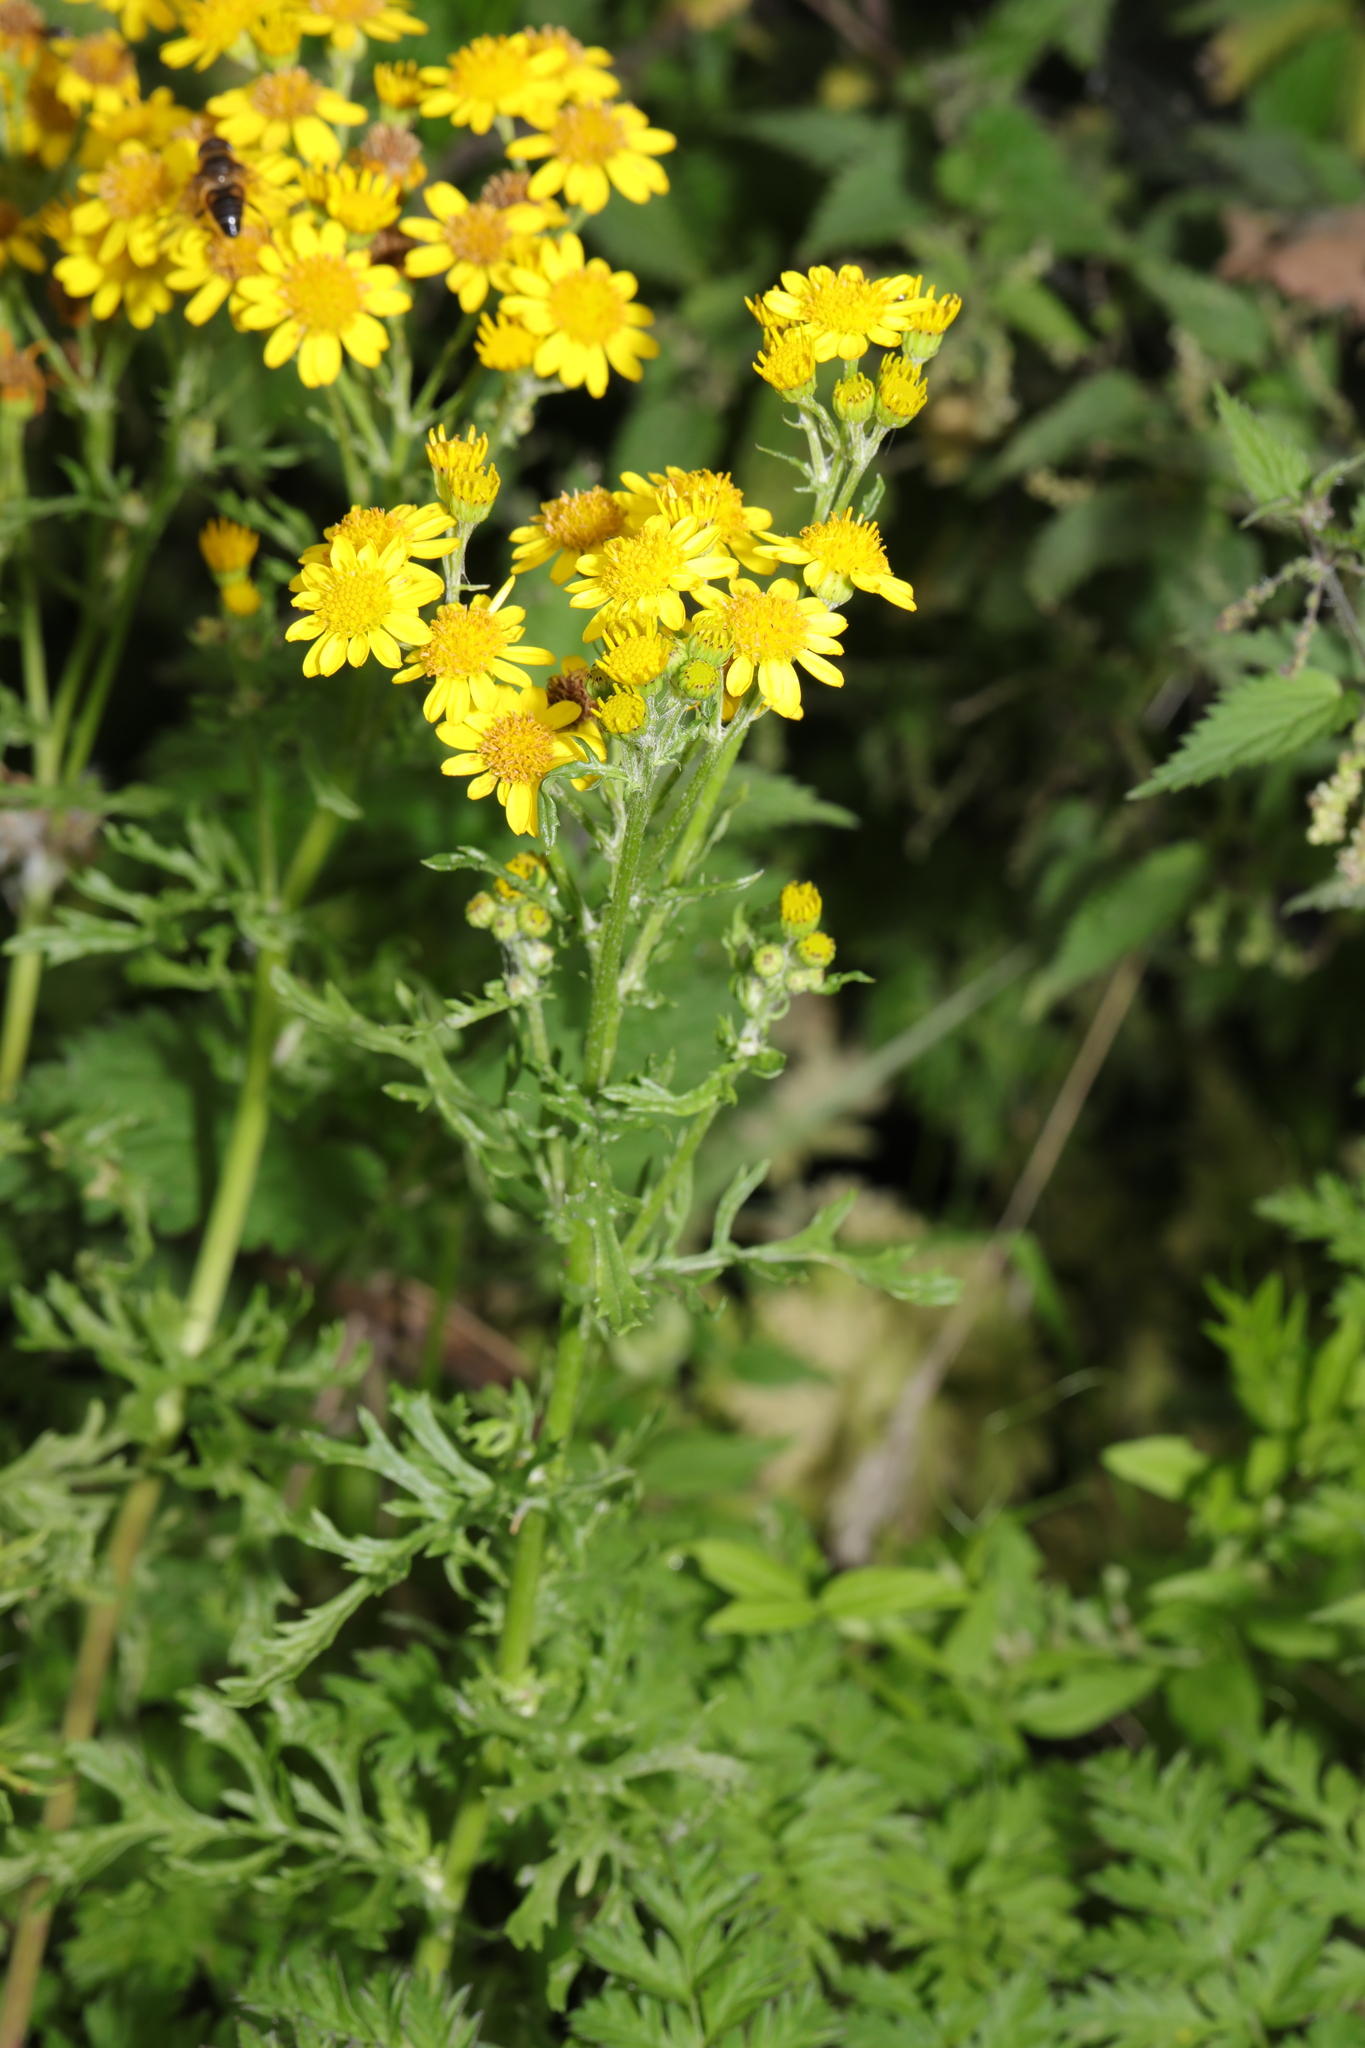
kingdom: Plantae
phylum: Tracheophyta
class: Magnoliopsida
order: Asterales
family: Asteraceae
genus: Jacobaea
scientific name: Jacobaea erucifolia
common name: Hoary ragwort
